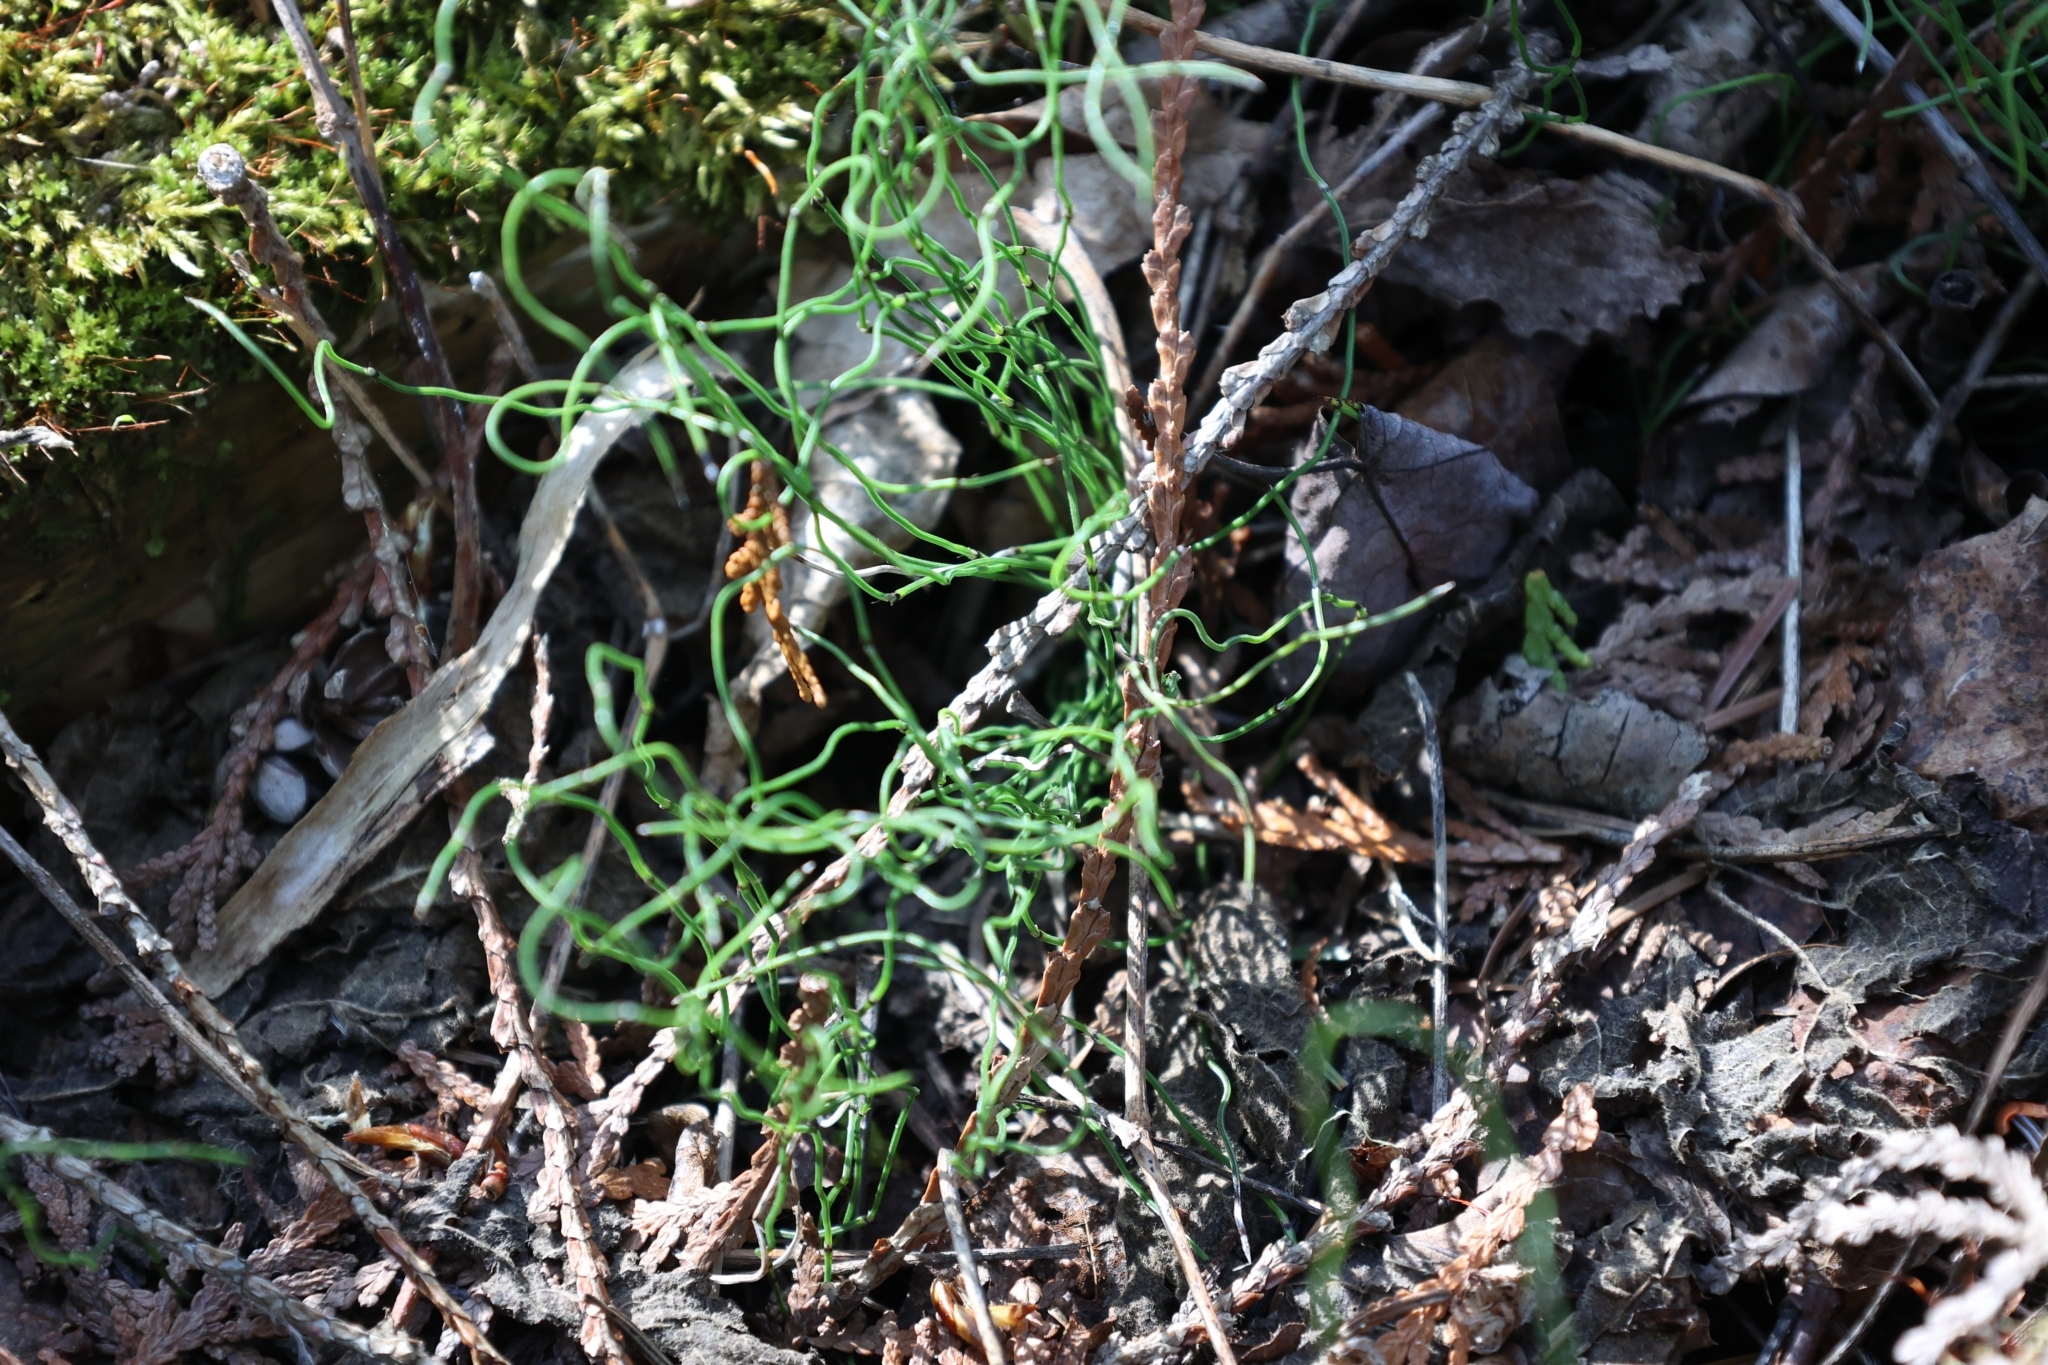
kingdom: Plantae
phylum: Tracheophyta
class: Polypodiopsida
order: Equisetales
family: Equisetaceae
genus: Equisetum
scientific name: Equisetum scirpoides
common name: Delicate horsetail
